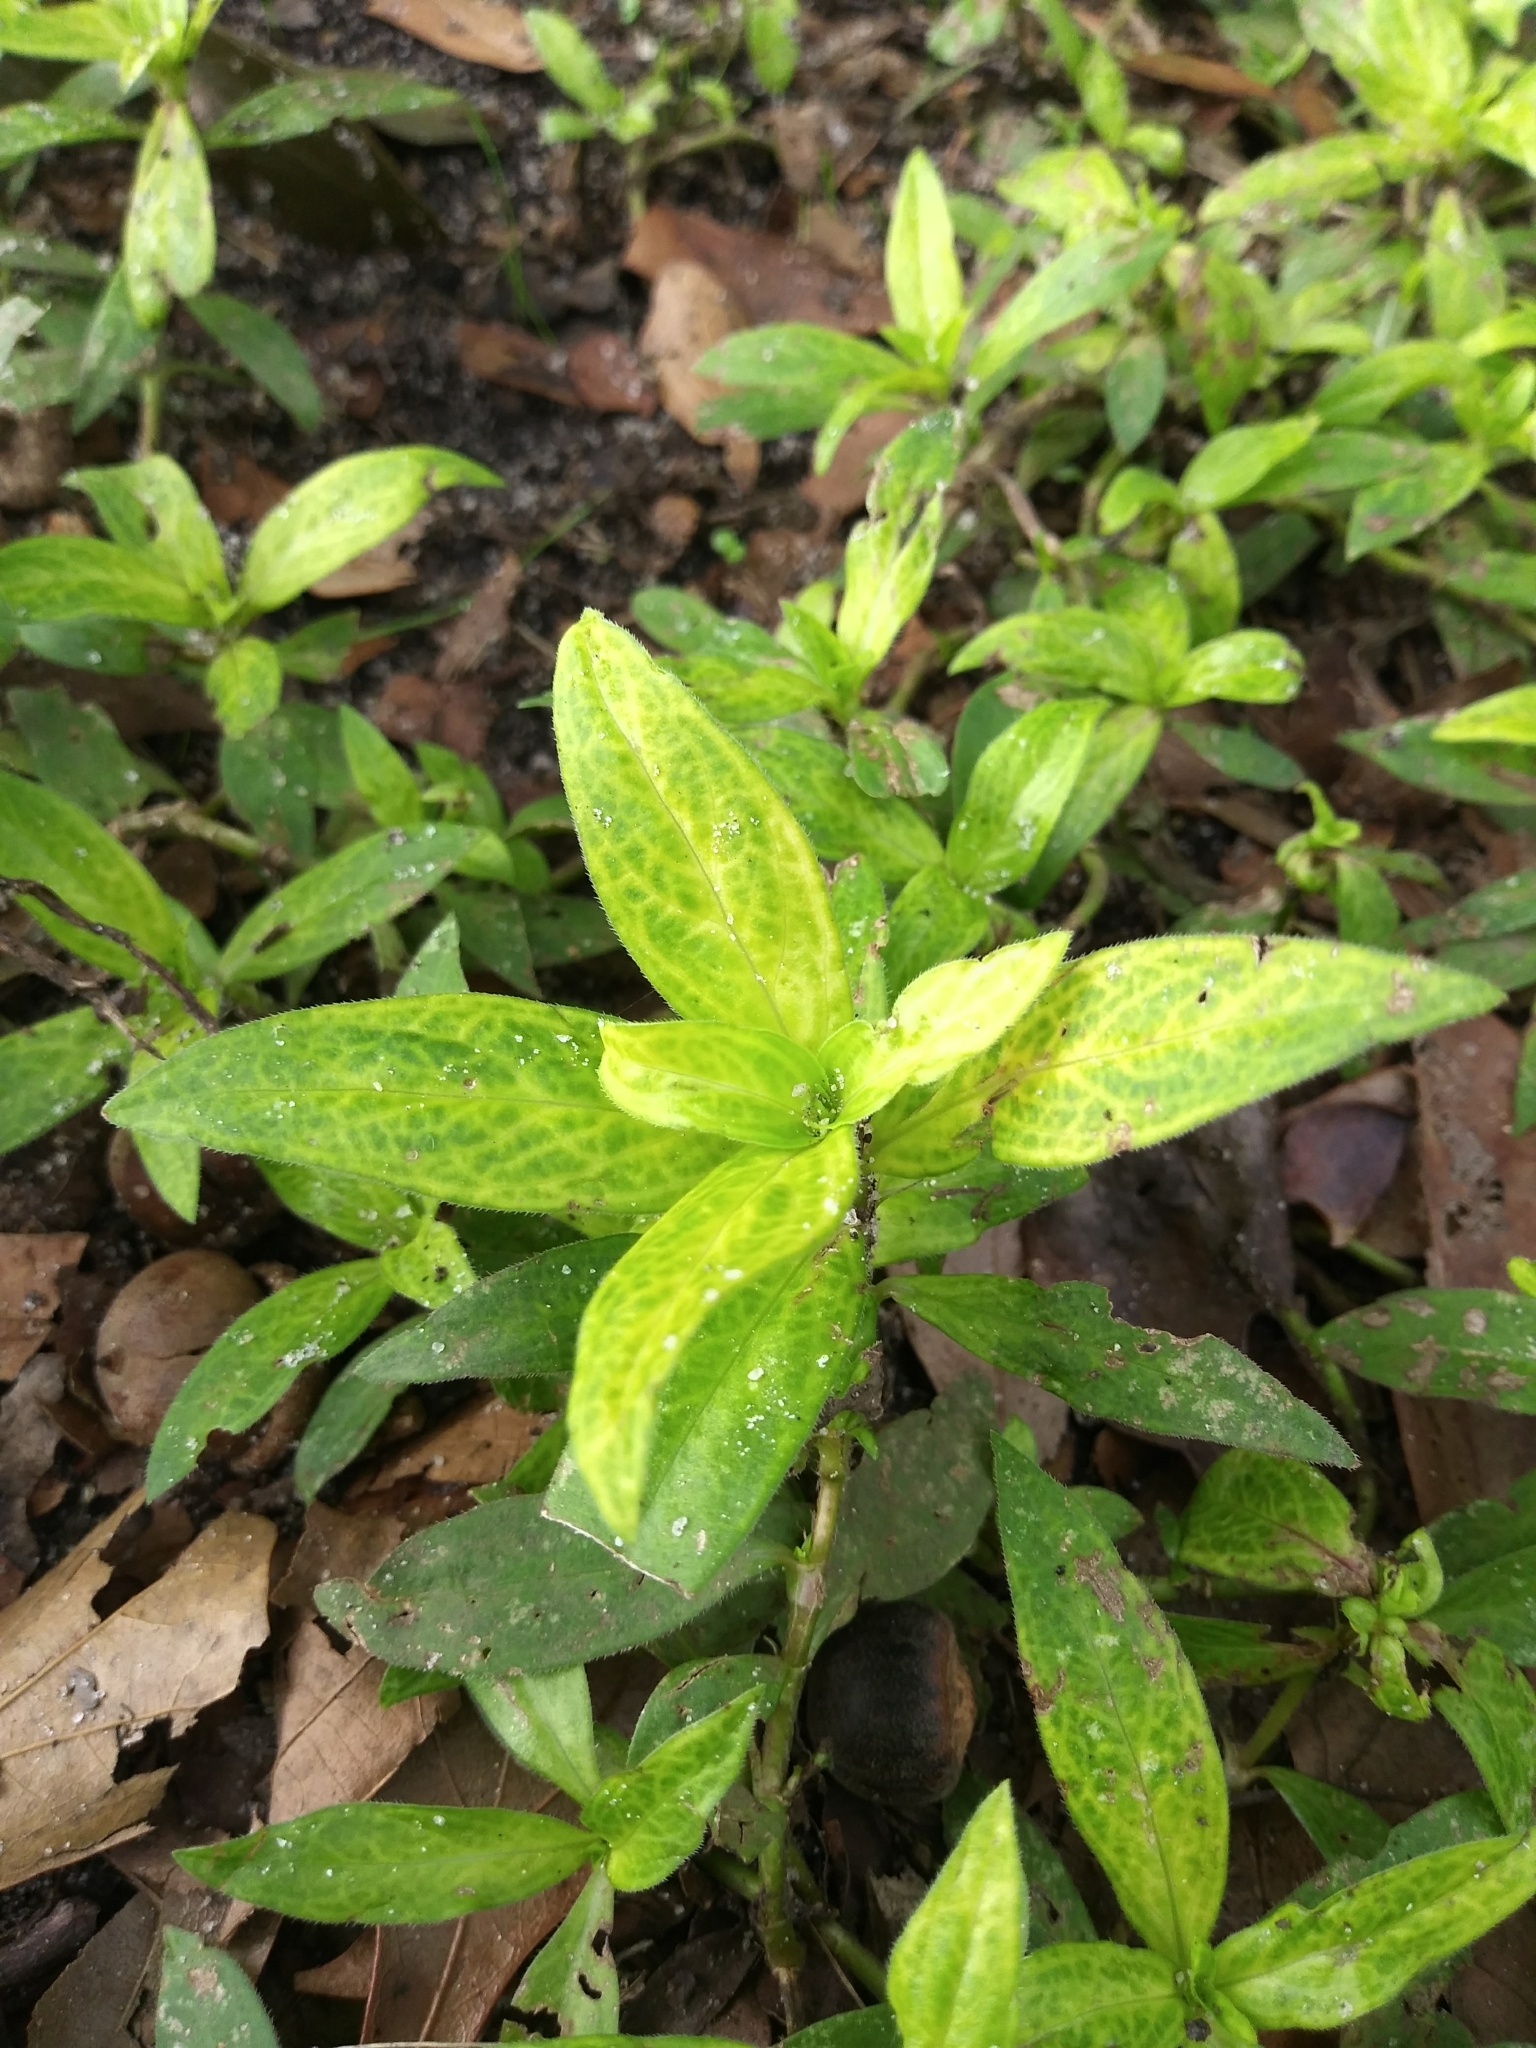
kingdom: Viruses
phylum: Kitrinoviricota
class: Alsuviricetes
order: Martellivirales
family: Closteroviridae
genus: Crinivirus
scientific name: Crinivirus Diodia vein chlorosis virus
